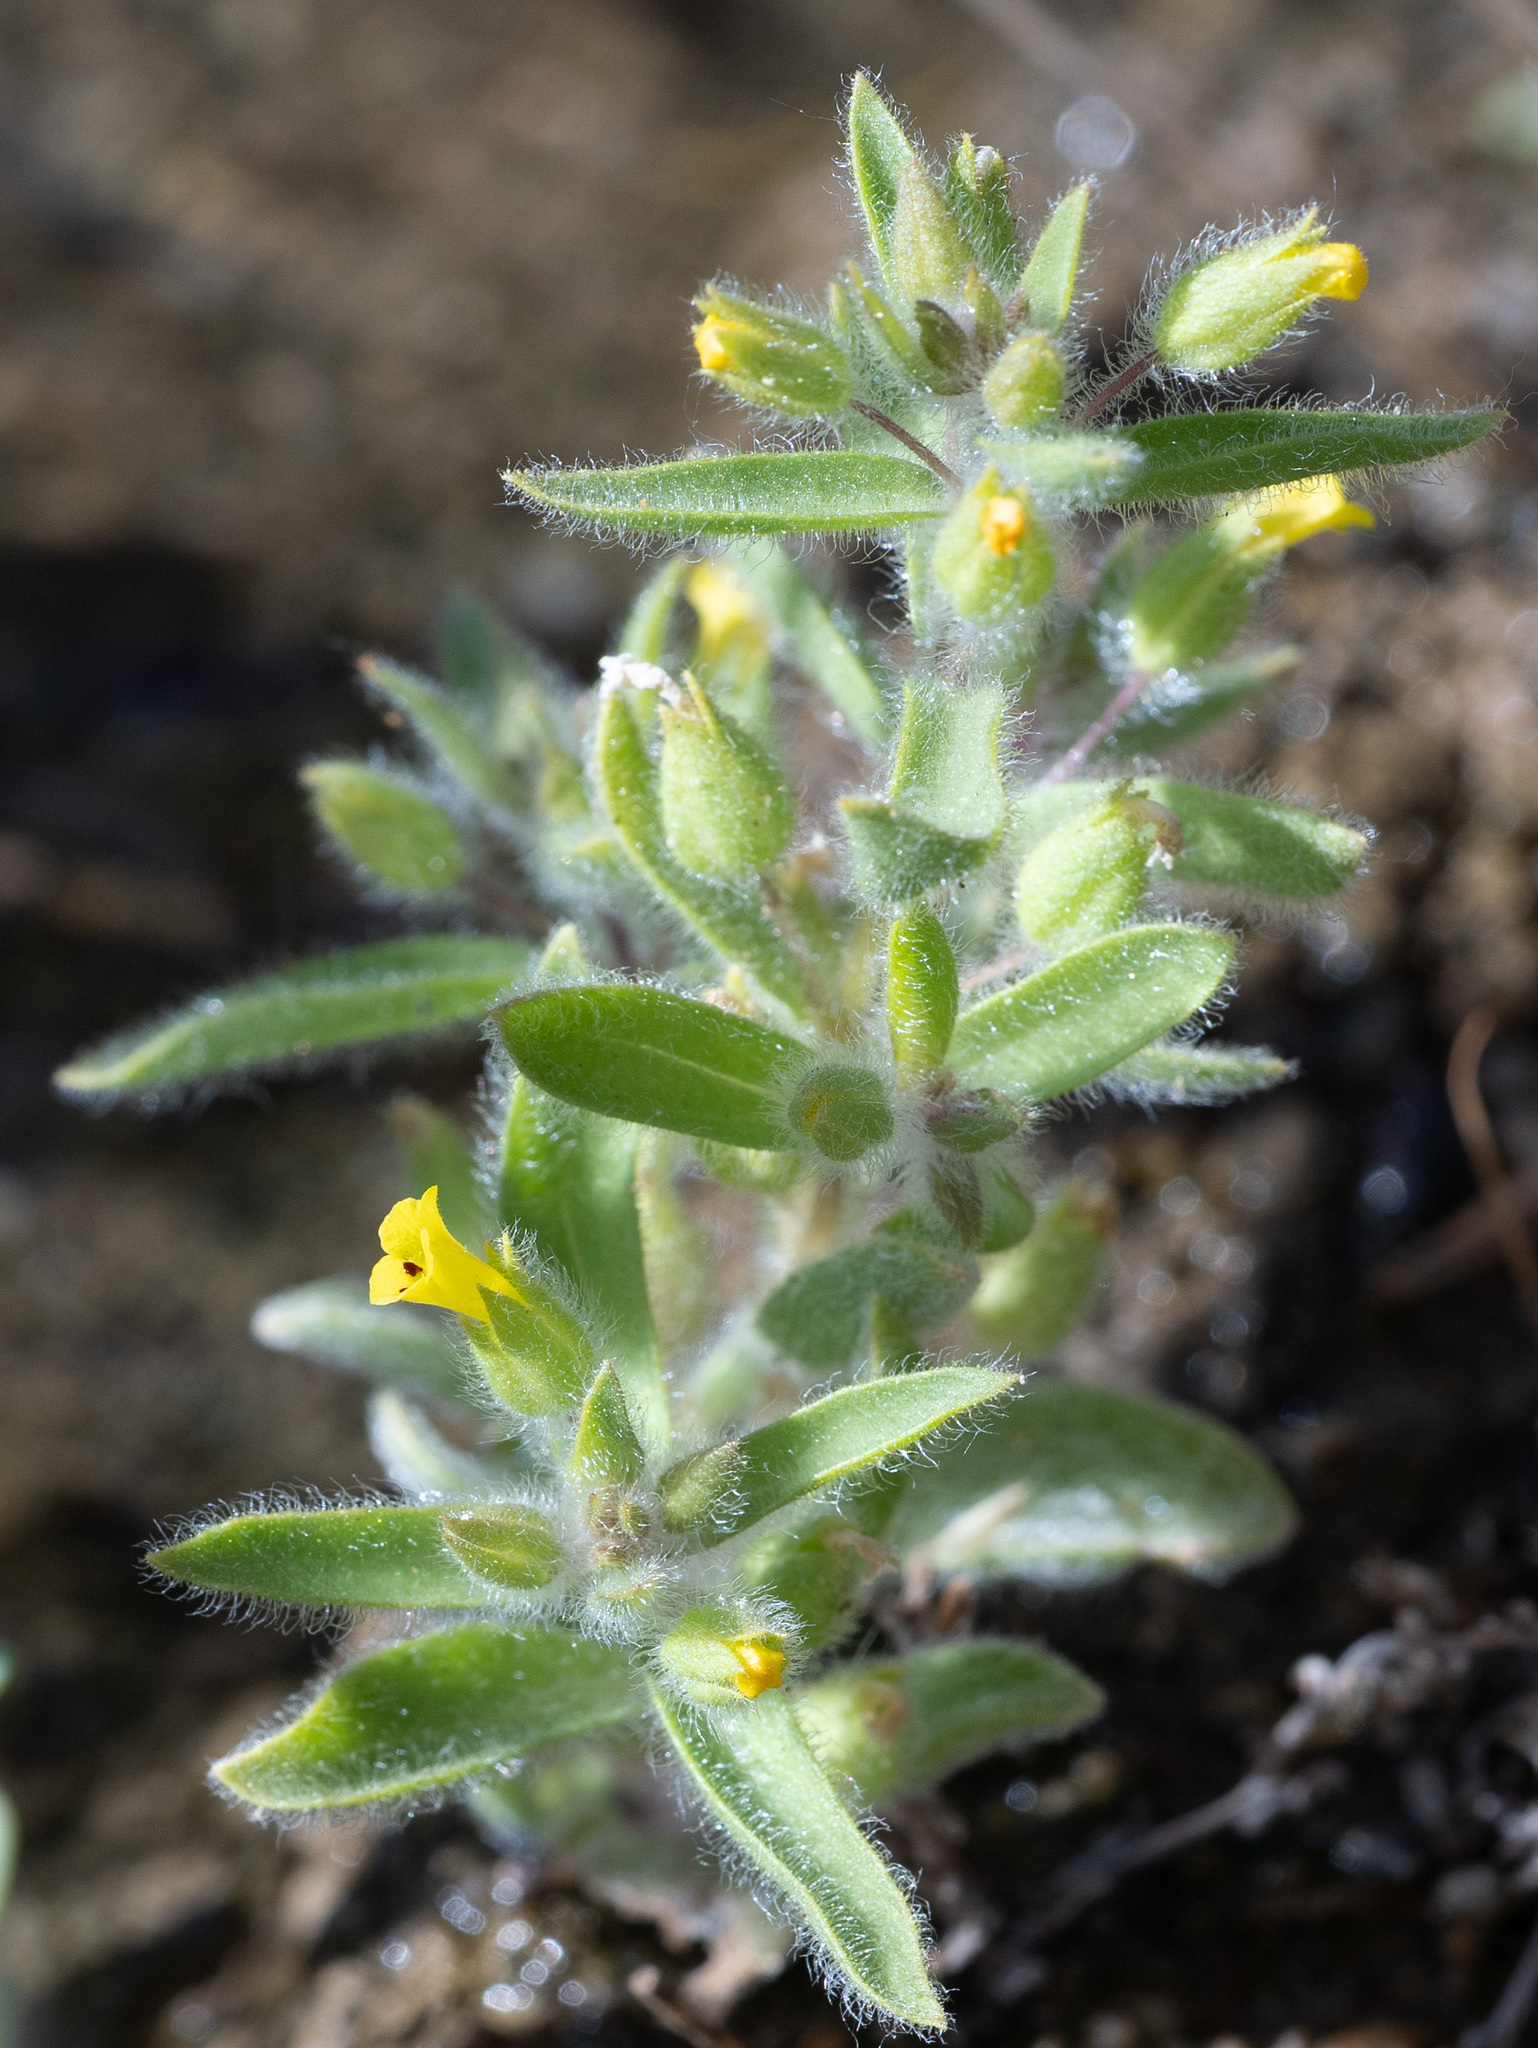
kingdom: Plantae
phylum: Tracheophyta
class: Magnoliopsida
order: Lamiales
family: Phrymaceae
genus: Mimetanthe
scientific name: Mimetanthe pilosa
